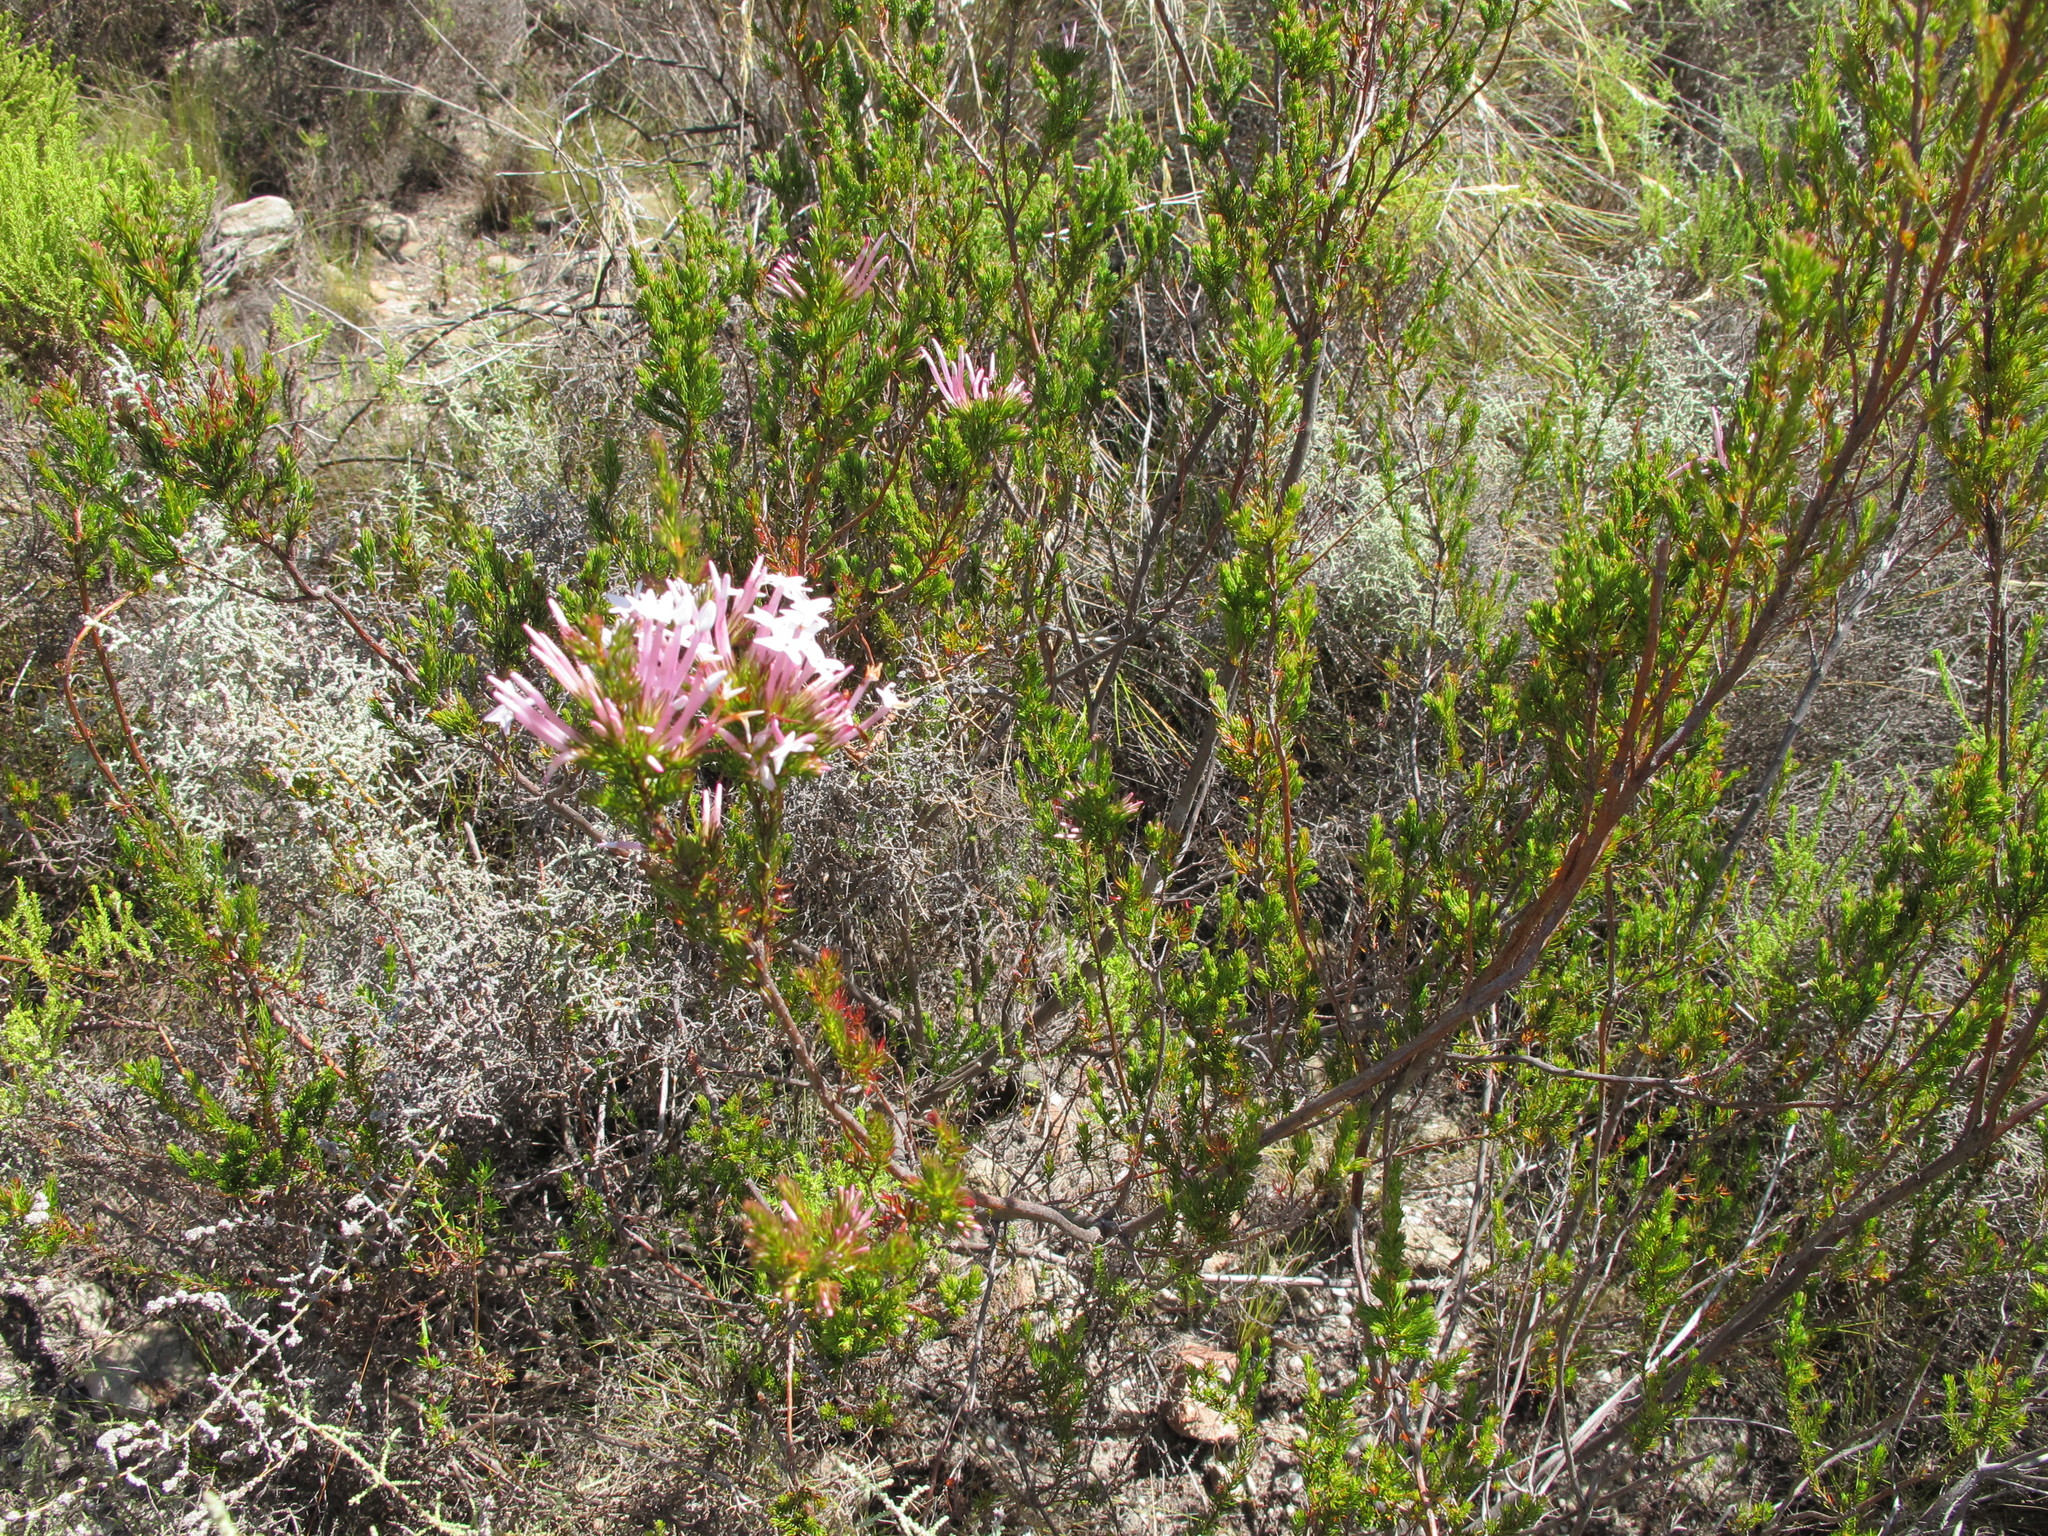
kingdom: Plantae
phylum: Tracheophyta
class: Magnoliopsida
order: Ericales
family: Ericaceae
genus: Erica
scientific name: Erica infundibuliformis
